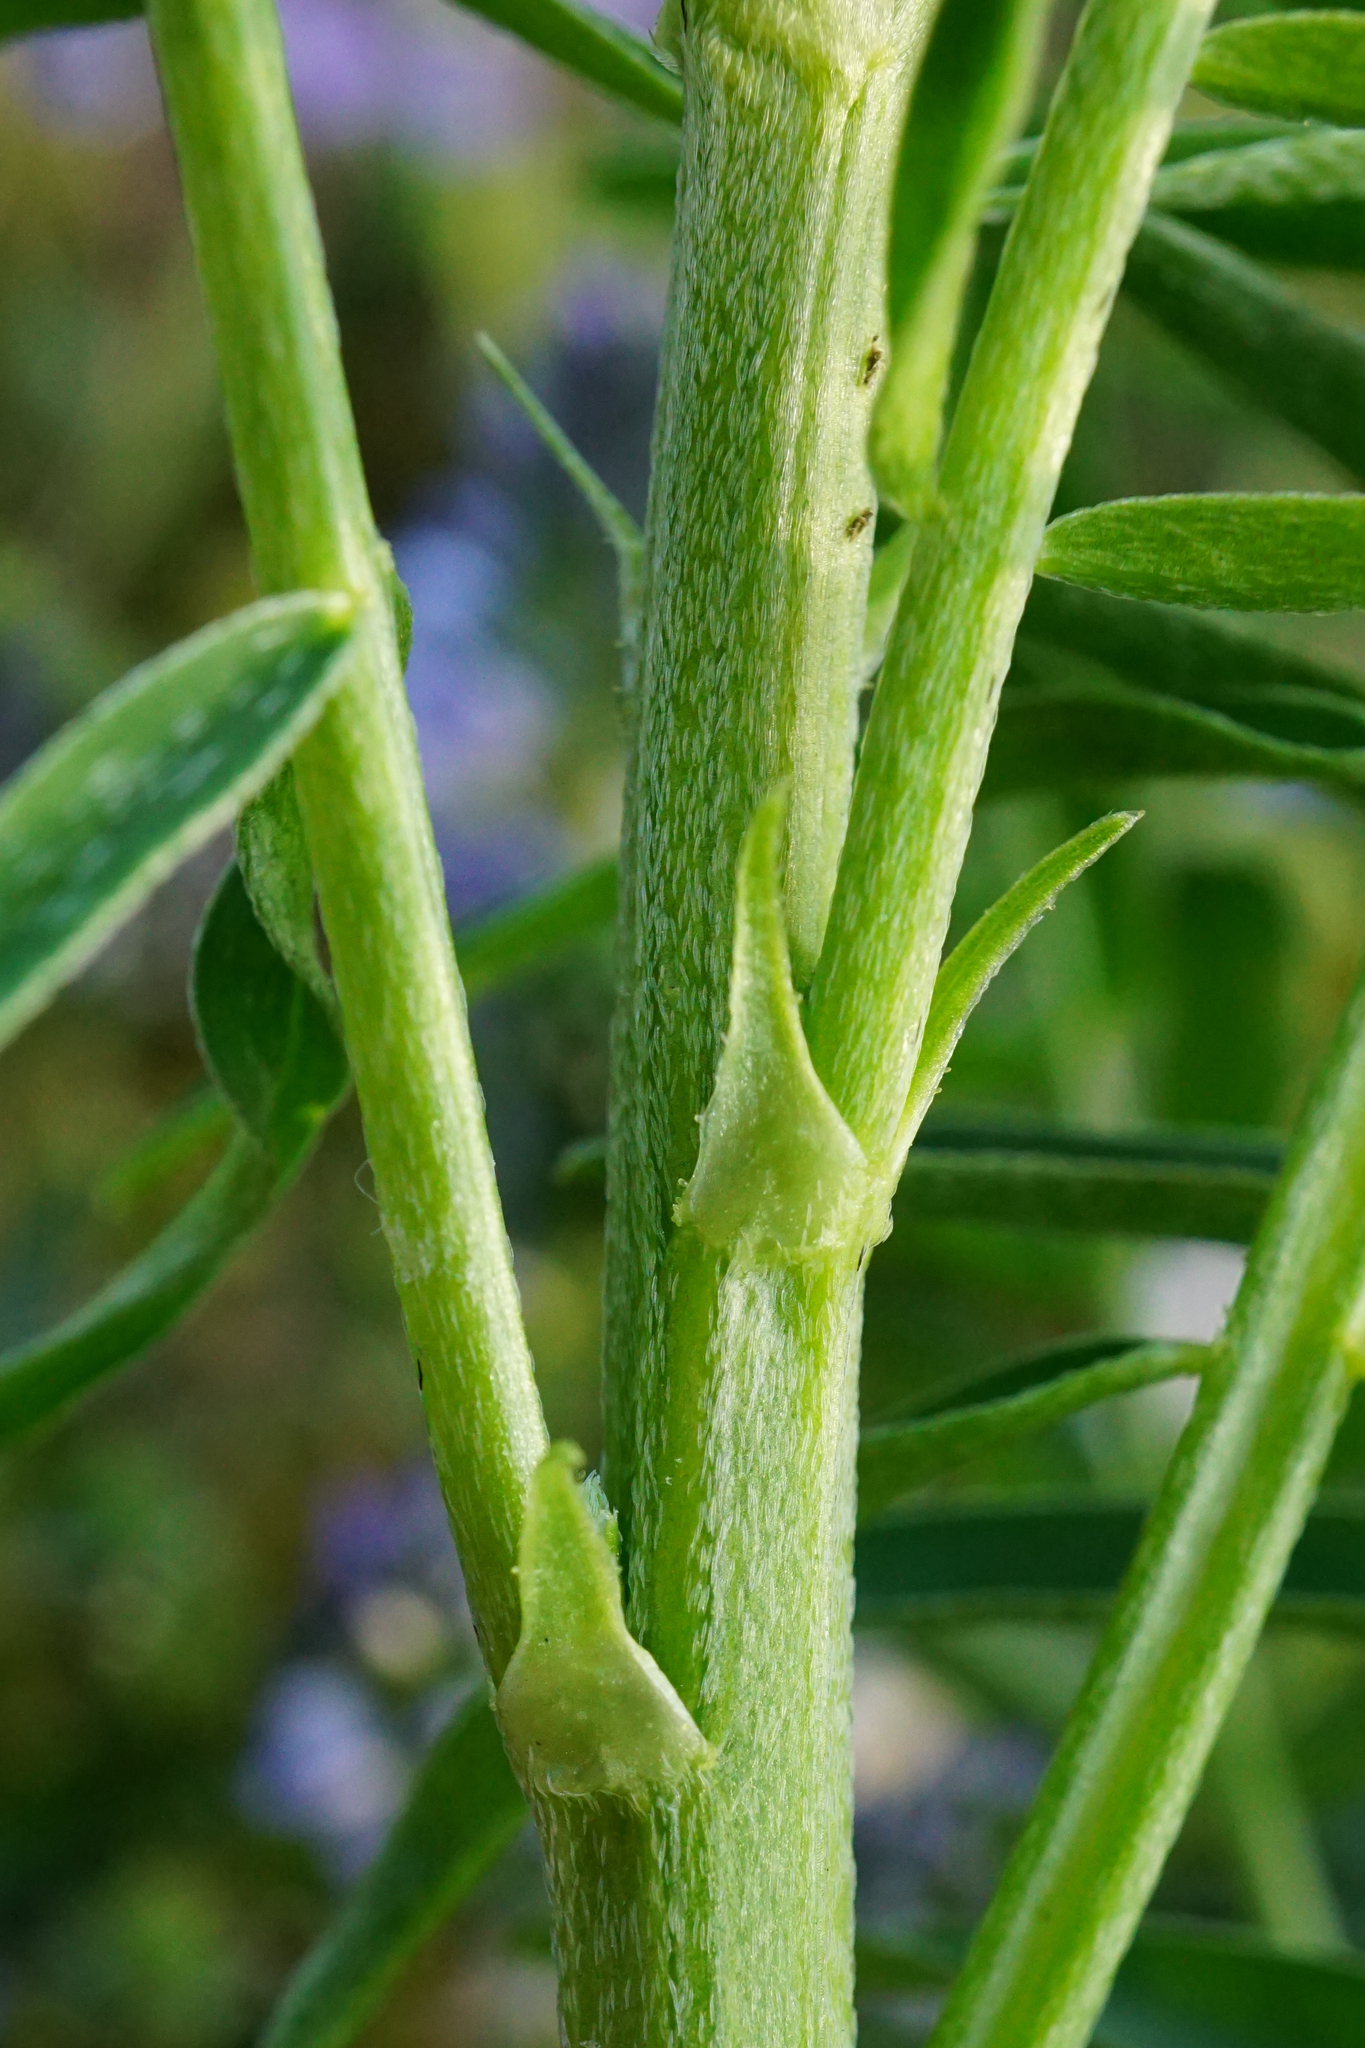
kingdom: Plantae
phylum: Tracheophyta
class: Magnoliopsida
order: Fabales
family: Fabaceae
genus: Astragalus
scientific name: Astragalus asper
